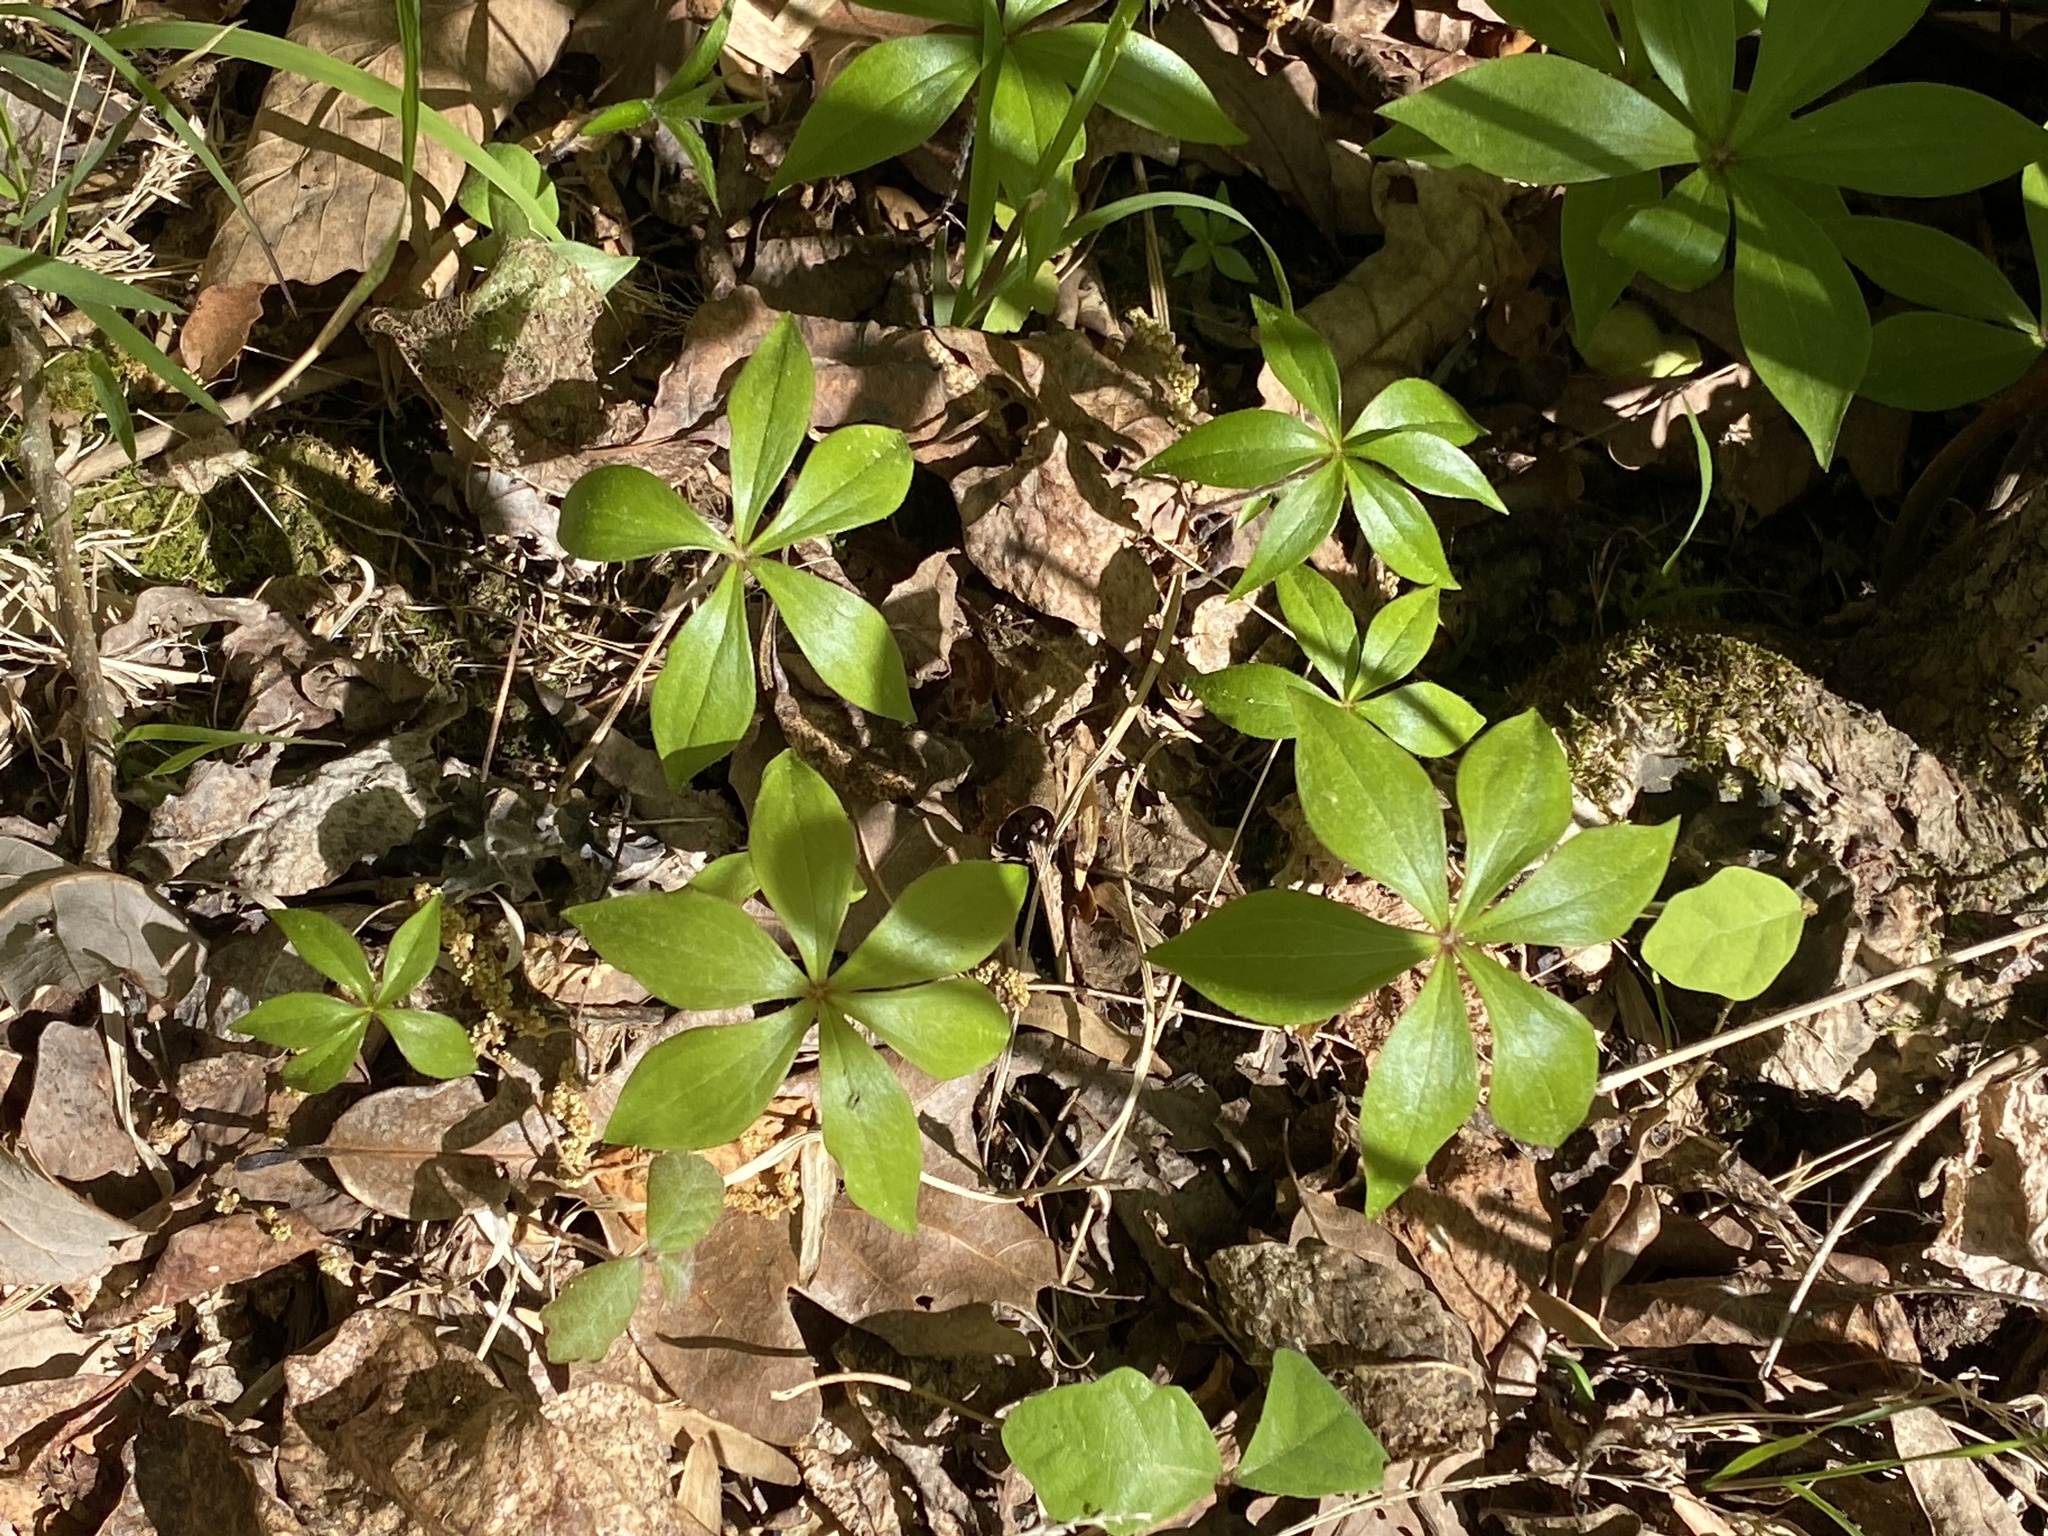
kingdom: Plantae
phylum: Tracheophyta
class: Liliopsida
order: Liliales
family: Liliaceae
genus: Medeola
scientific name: Medeola virginiana
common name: Indian cucumber-root
